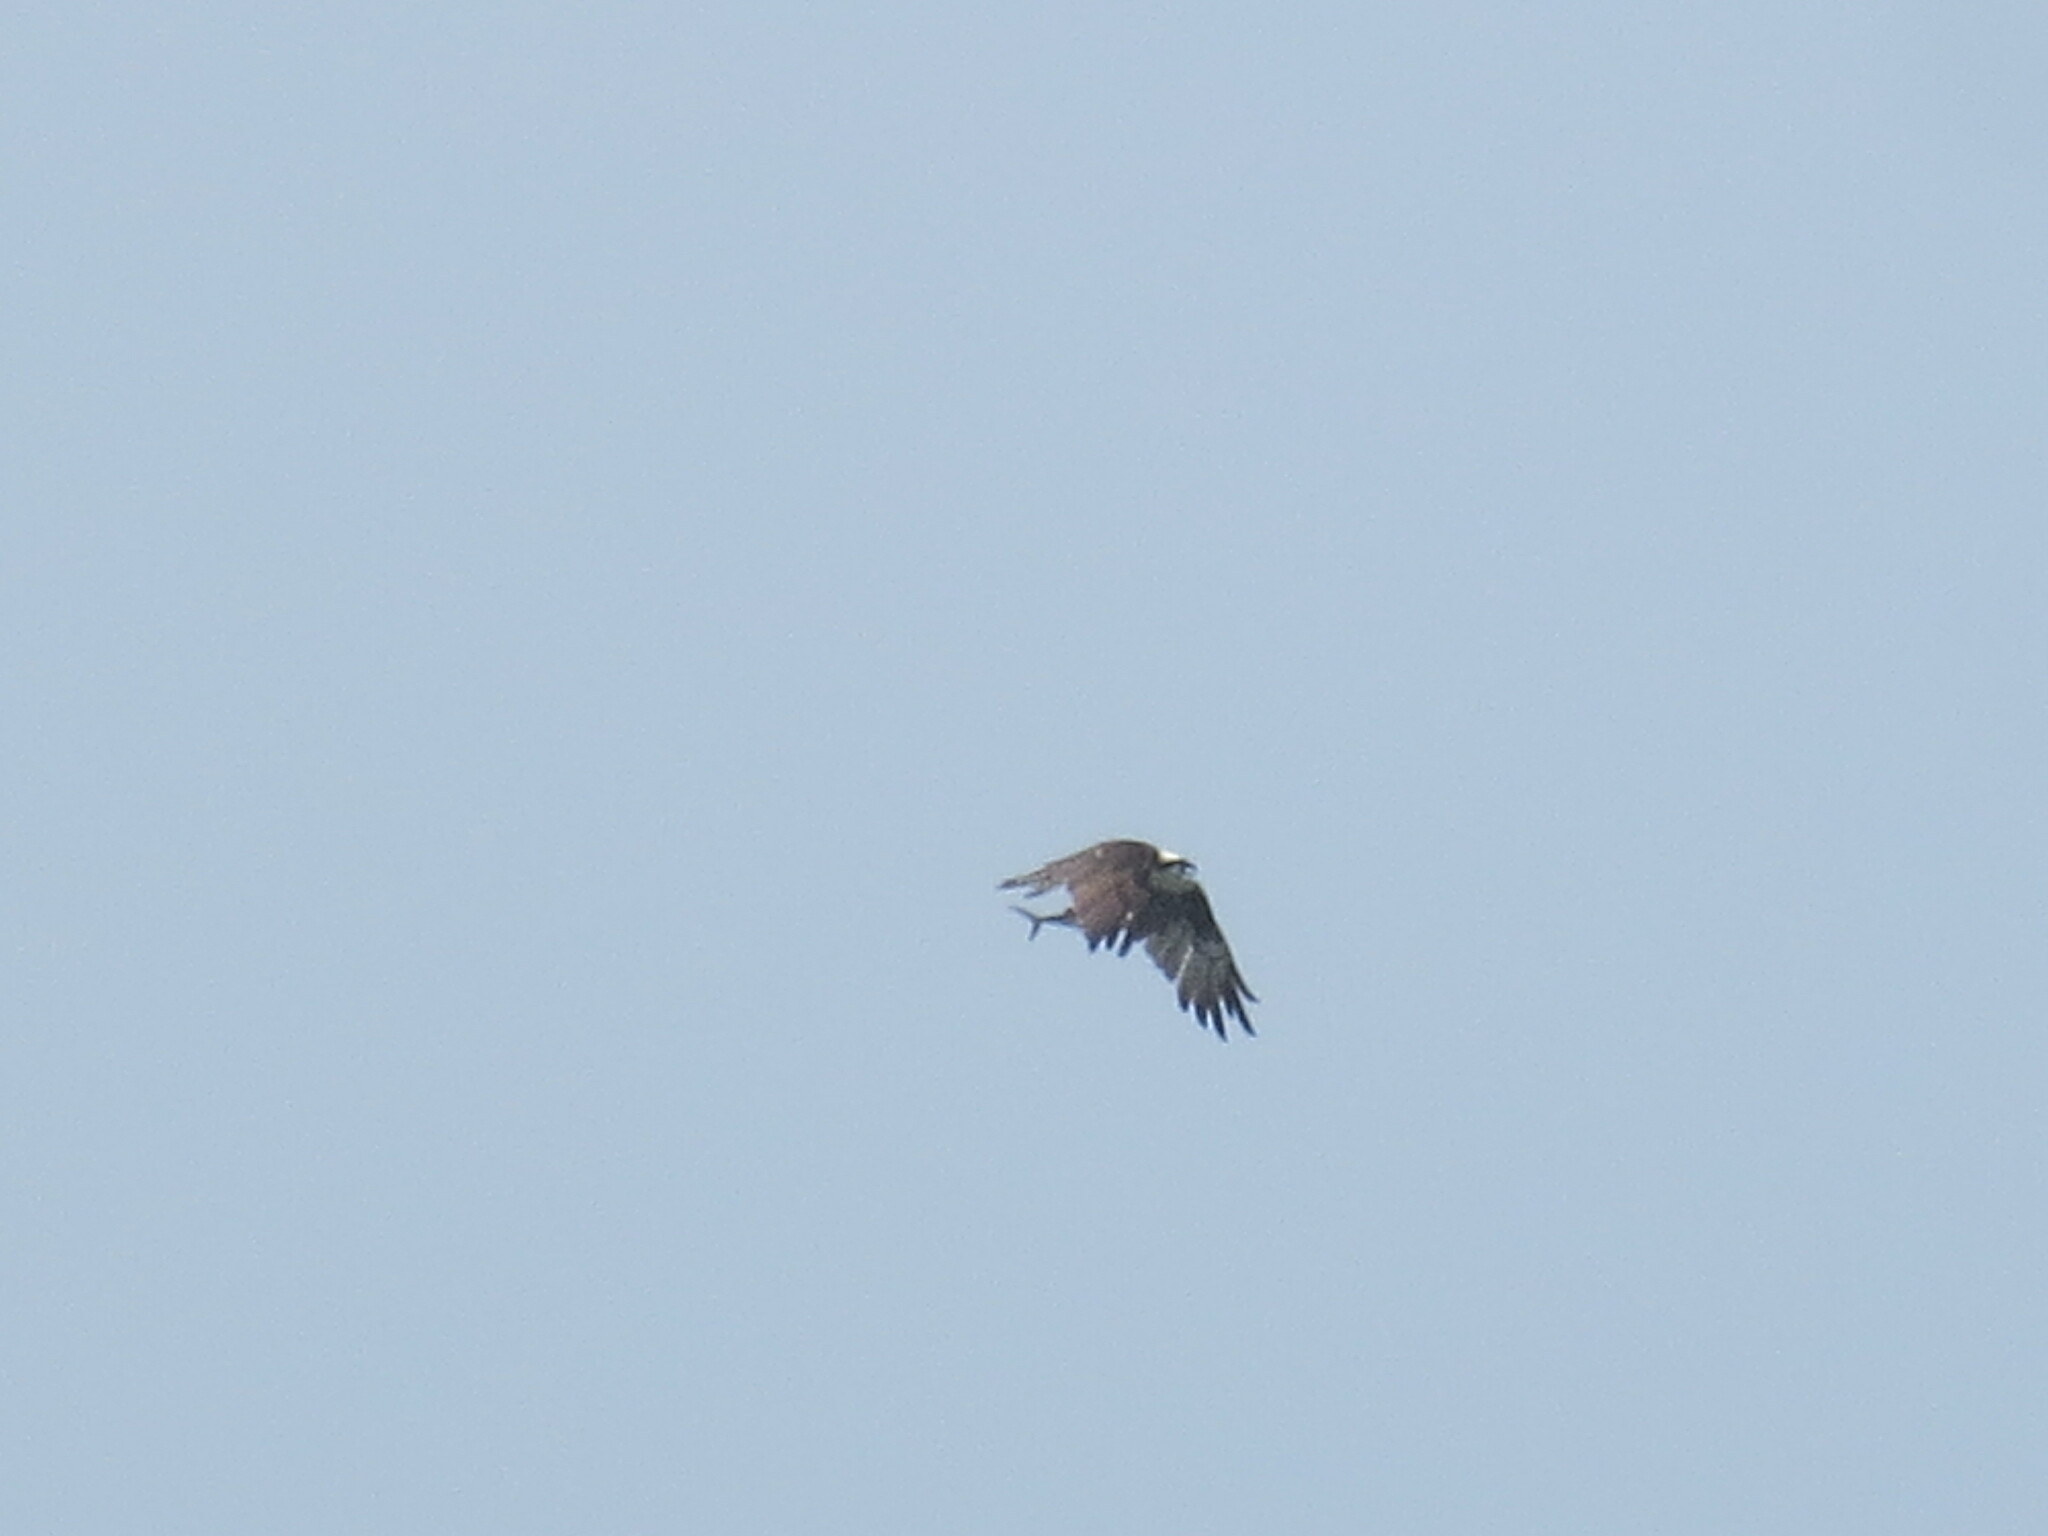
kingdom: Animalia
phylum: Chordata
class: Aves
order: Accipitriformes
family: Pandionidae
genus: Pandion
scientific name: Pandion haliaetus
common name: Osprey
